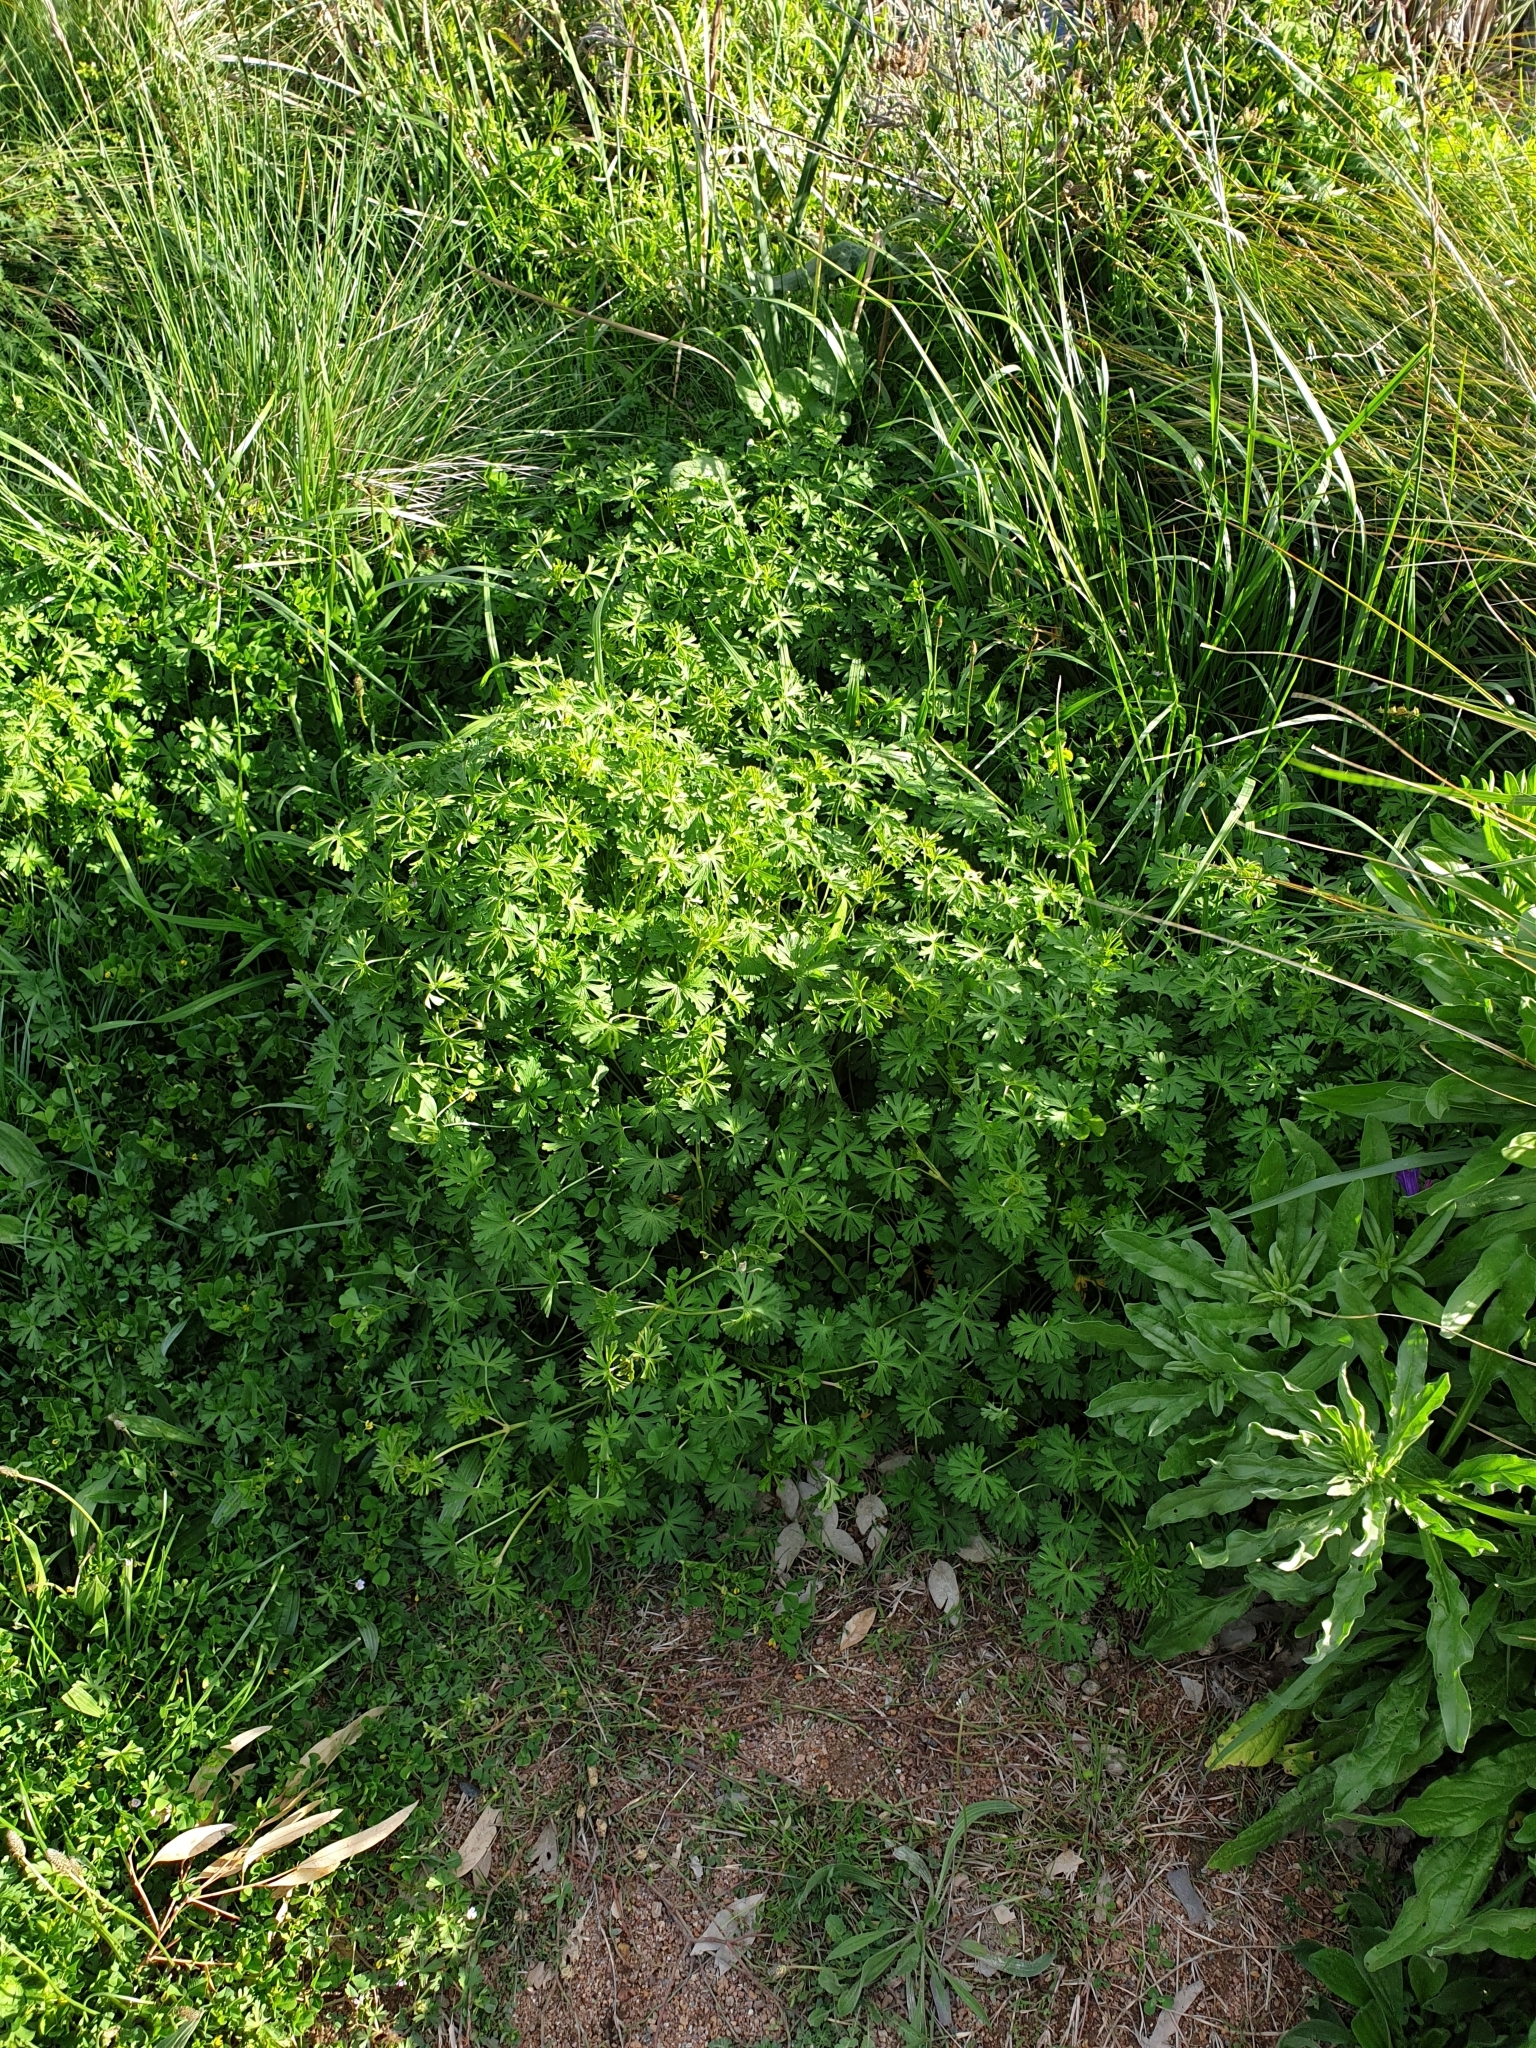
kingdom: Plantae
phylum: Tracheophyta
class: Magnoliopsida
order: Geraniales
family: Geraniaceae
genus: Geranium
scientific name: Geranium
